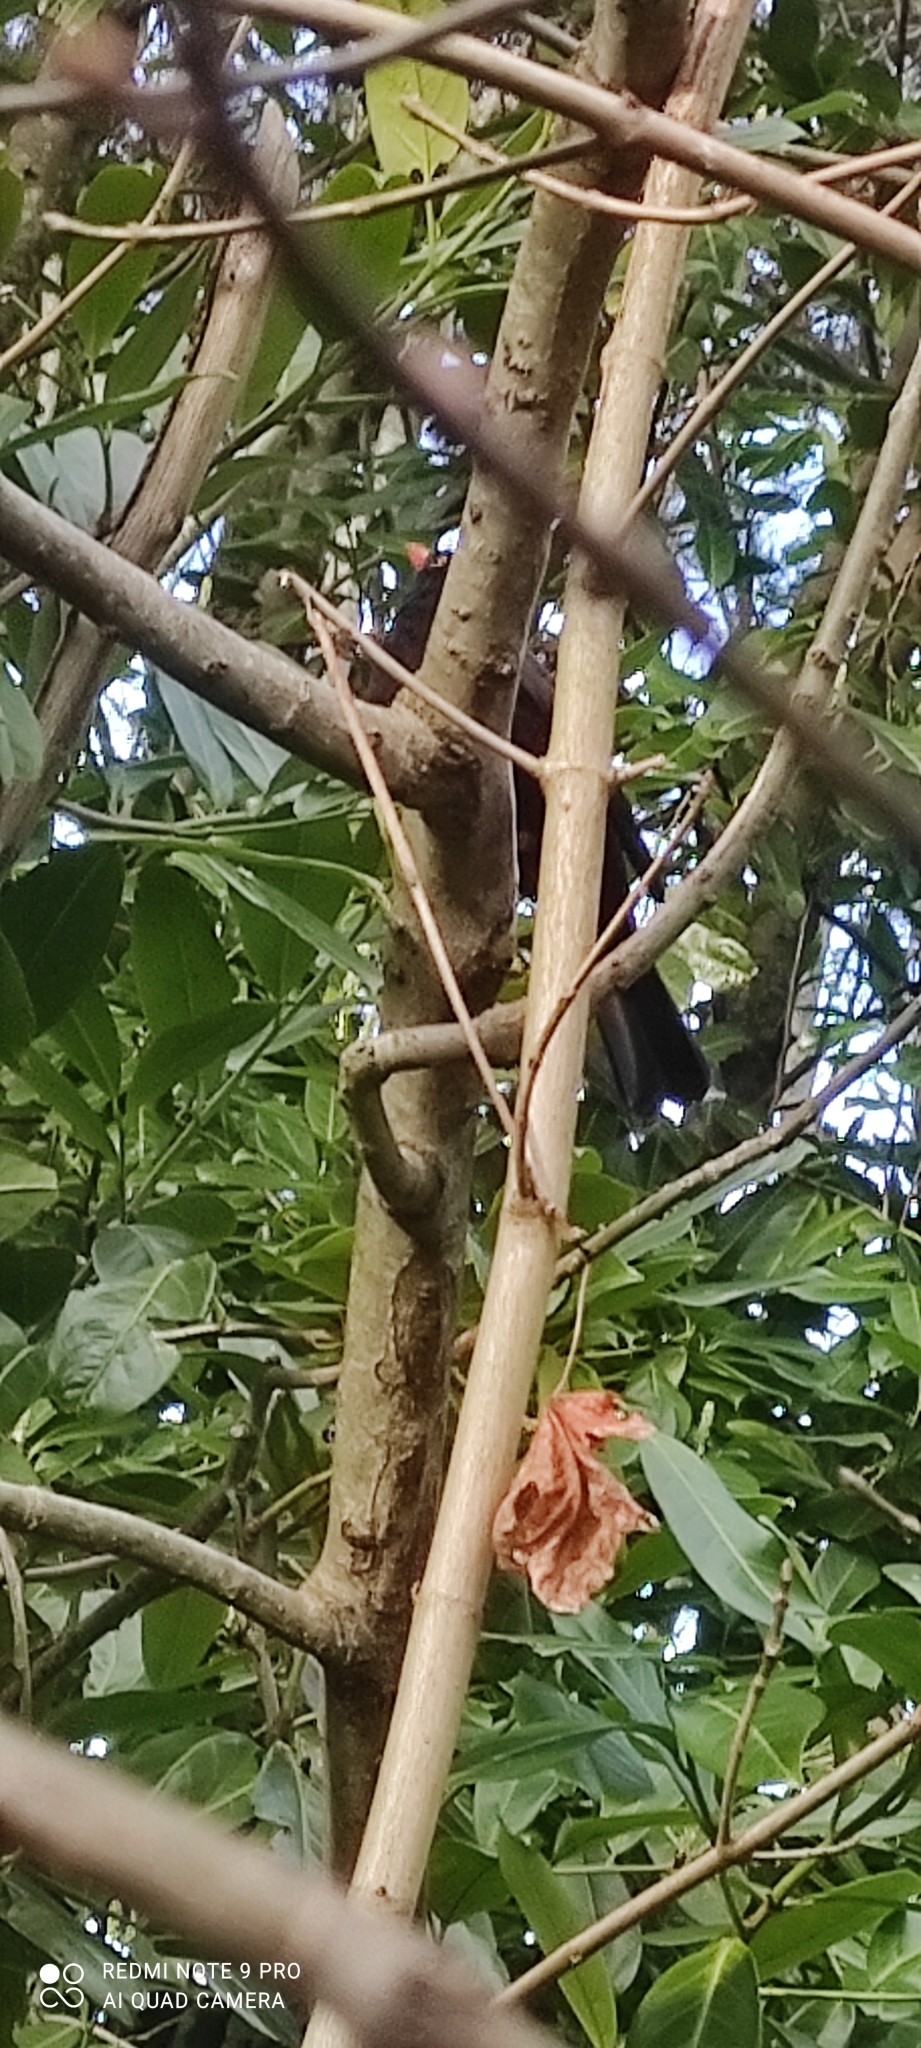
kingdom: Animalia
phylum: Chordata
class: Aves
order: Passeriformes
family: Turdidae
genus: Turdus
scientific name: Turdus merula
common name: Common blackbird
